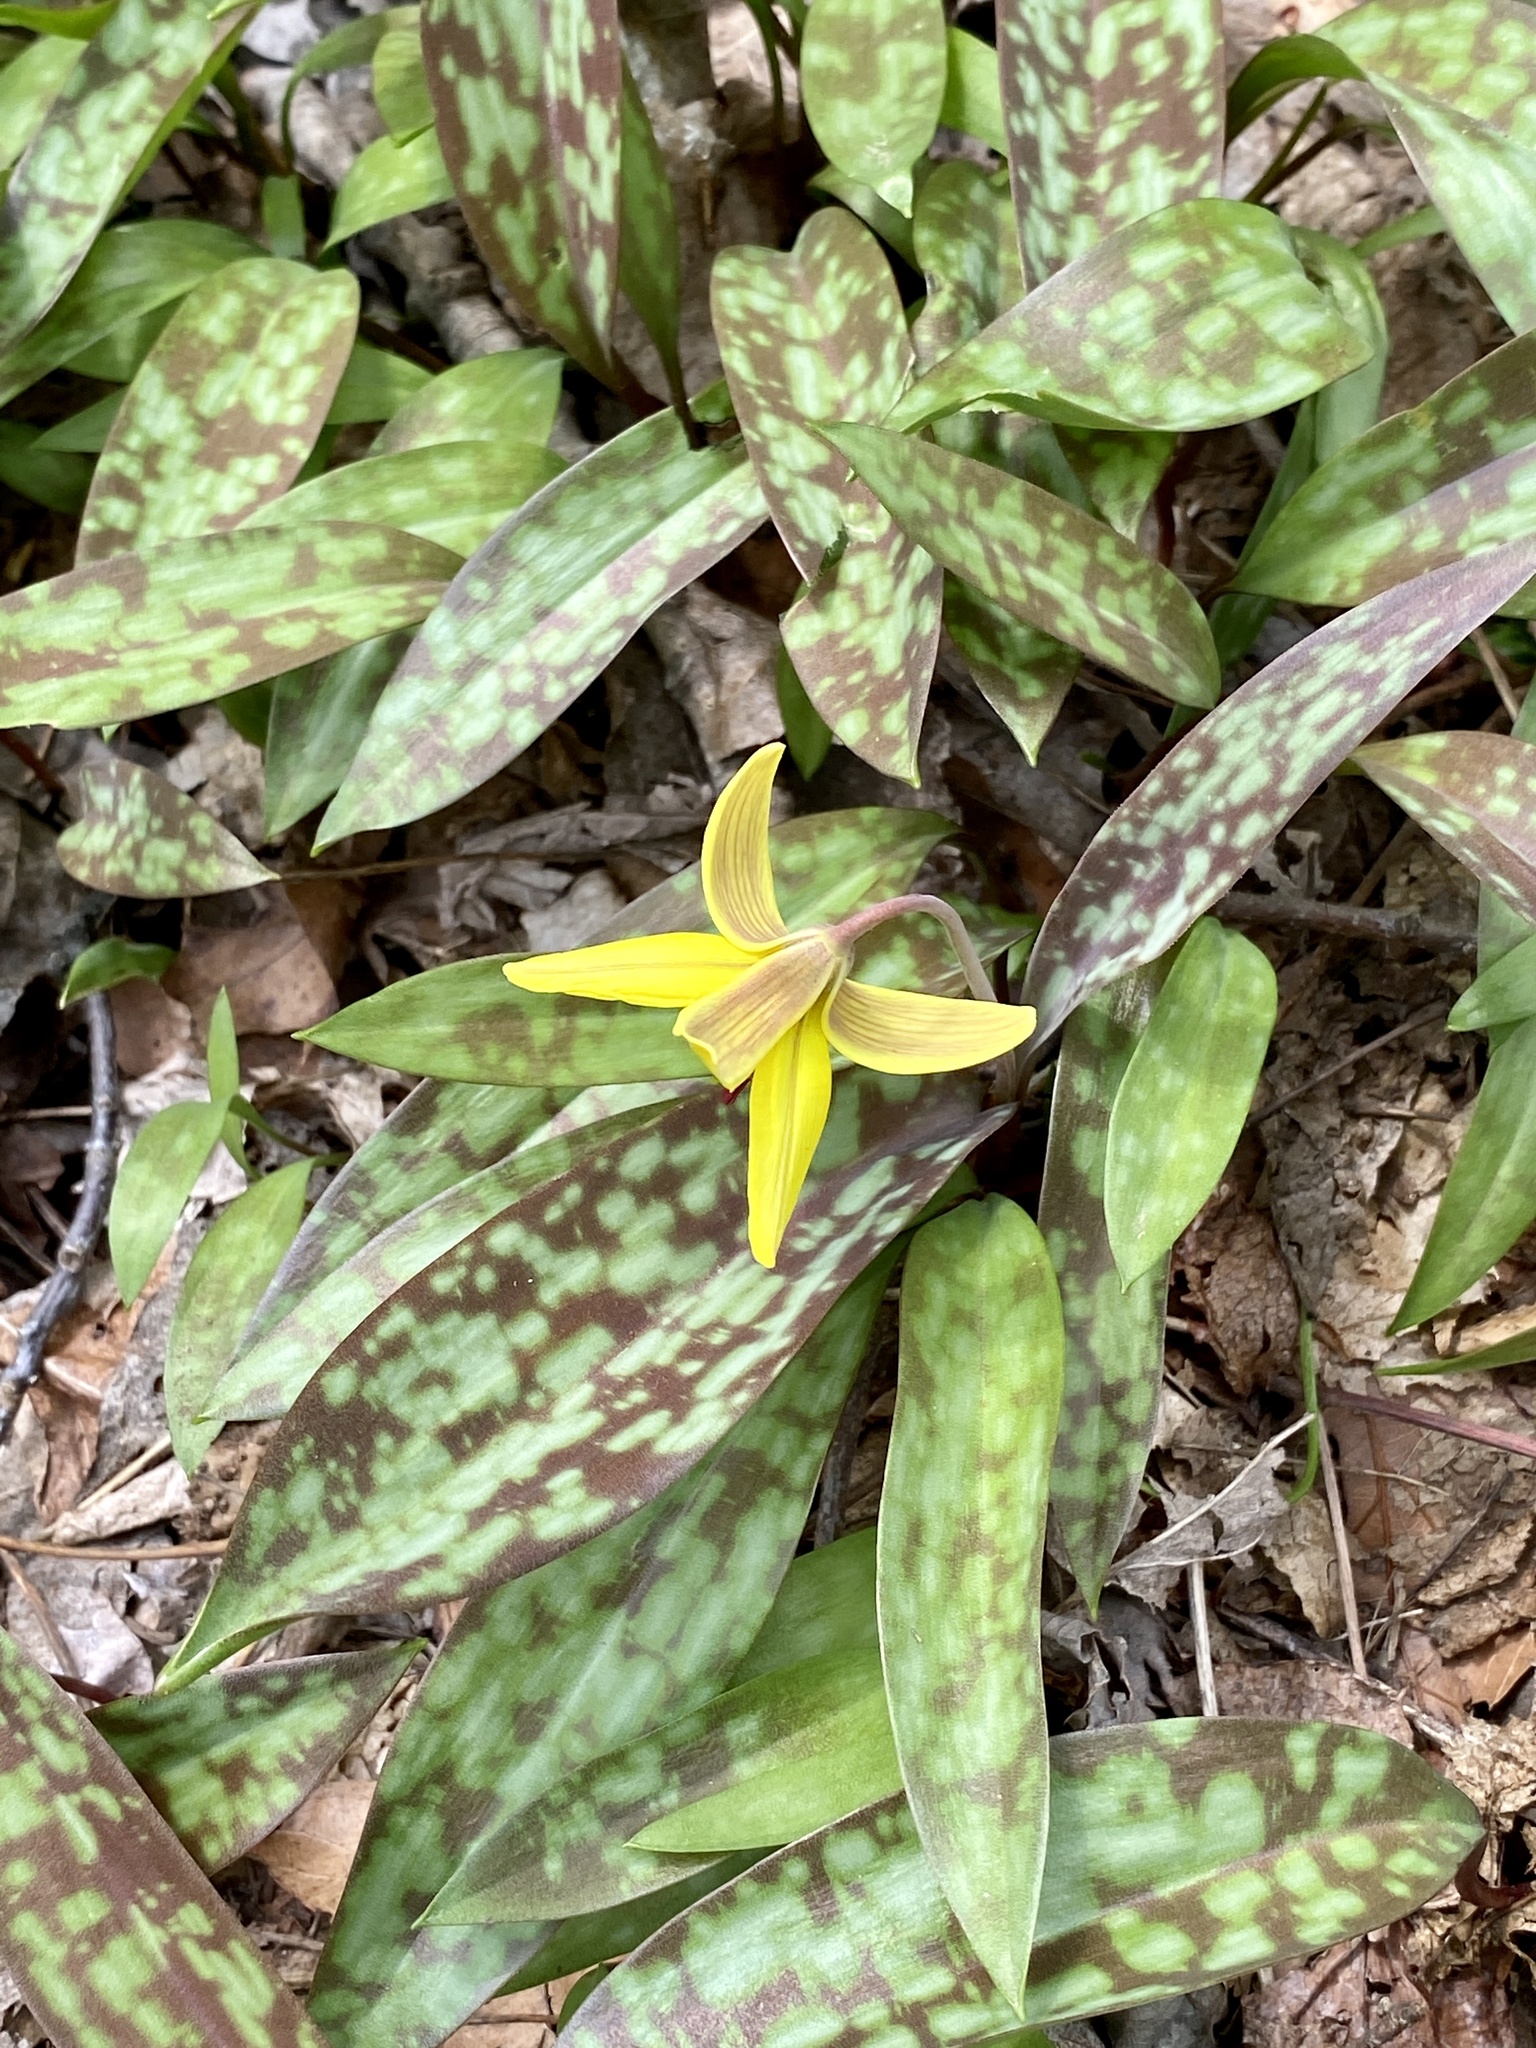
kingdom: Plantae
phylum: Tracheophyta
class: Liliopsida
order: Liliales
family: Liliaceae
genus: Erythronium
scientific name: Erythronium americanum
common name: Yellow adder's-tongue
